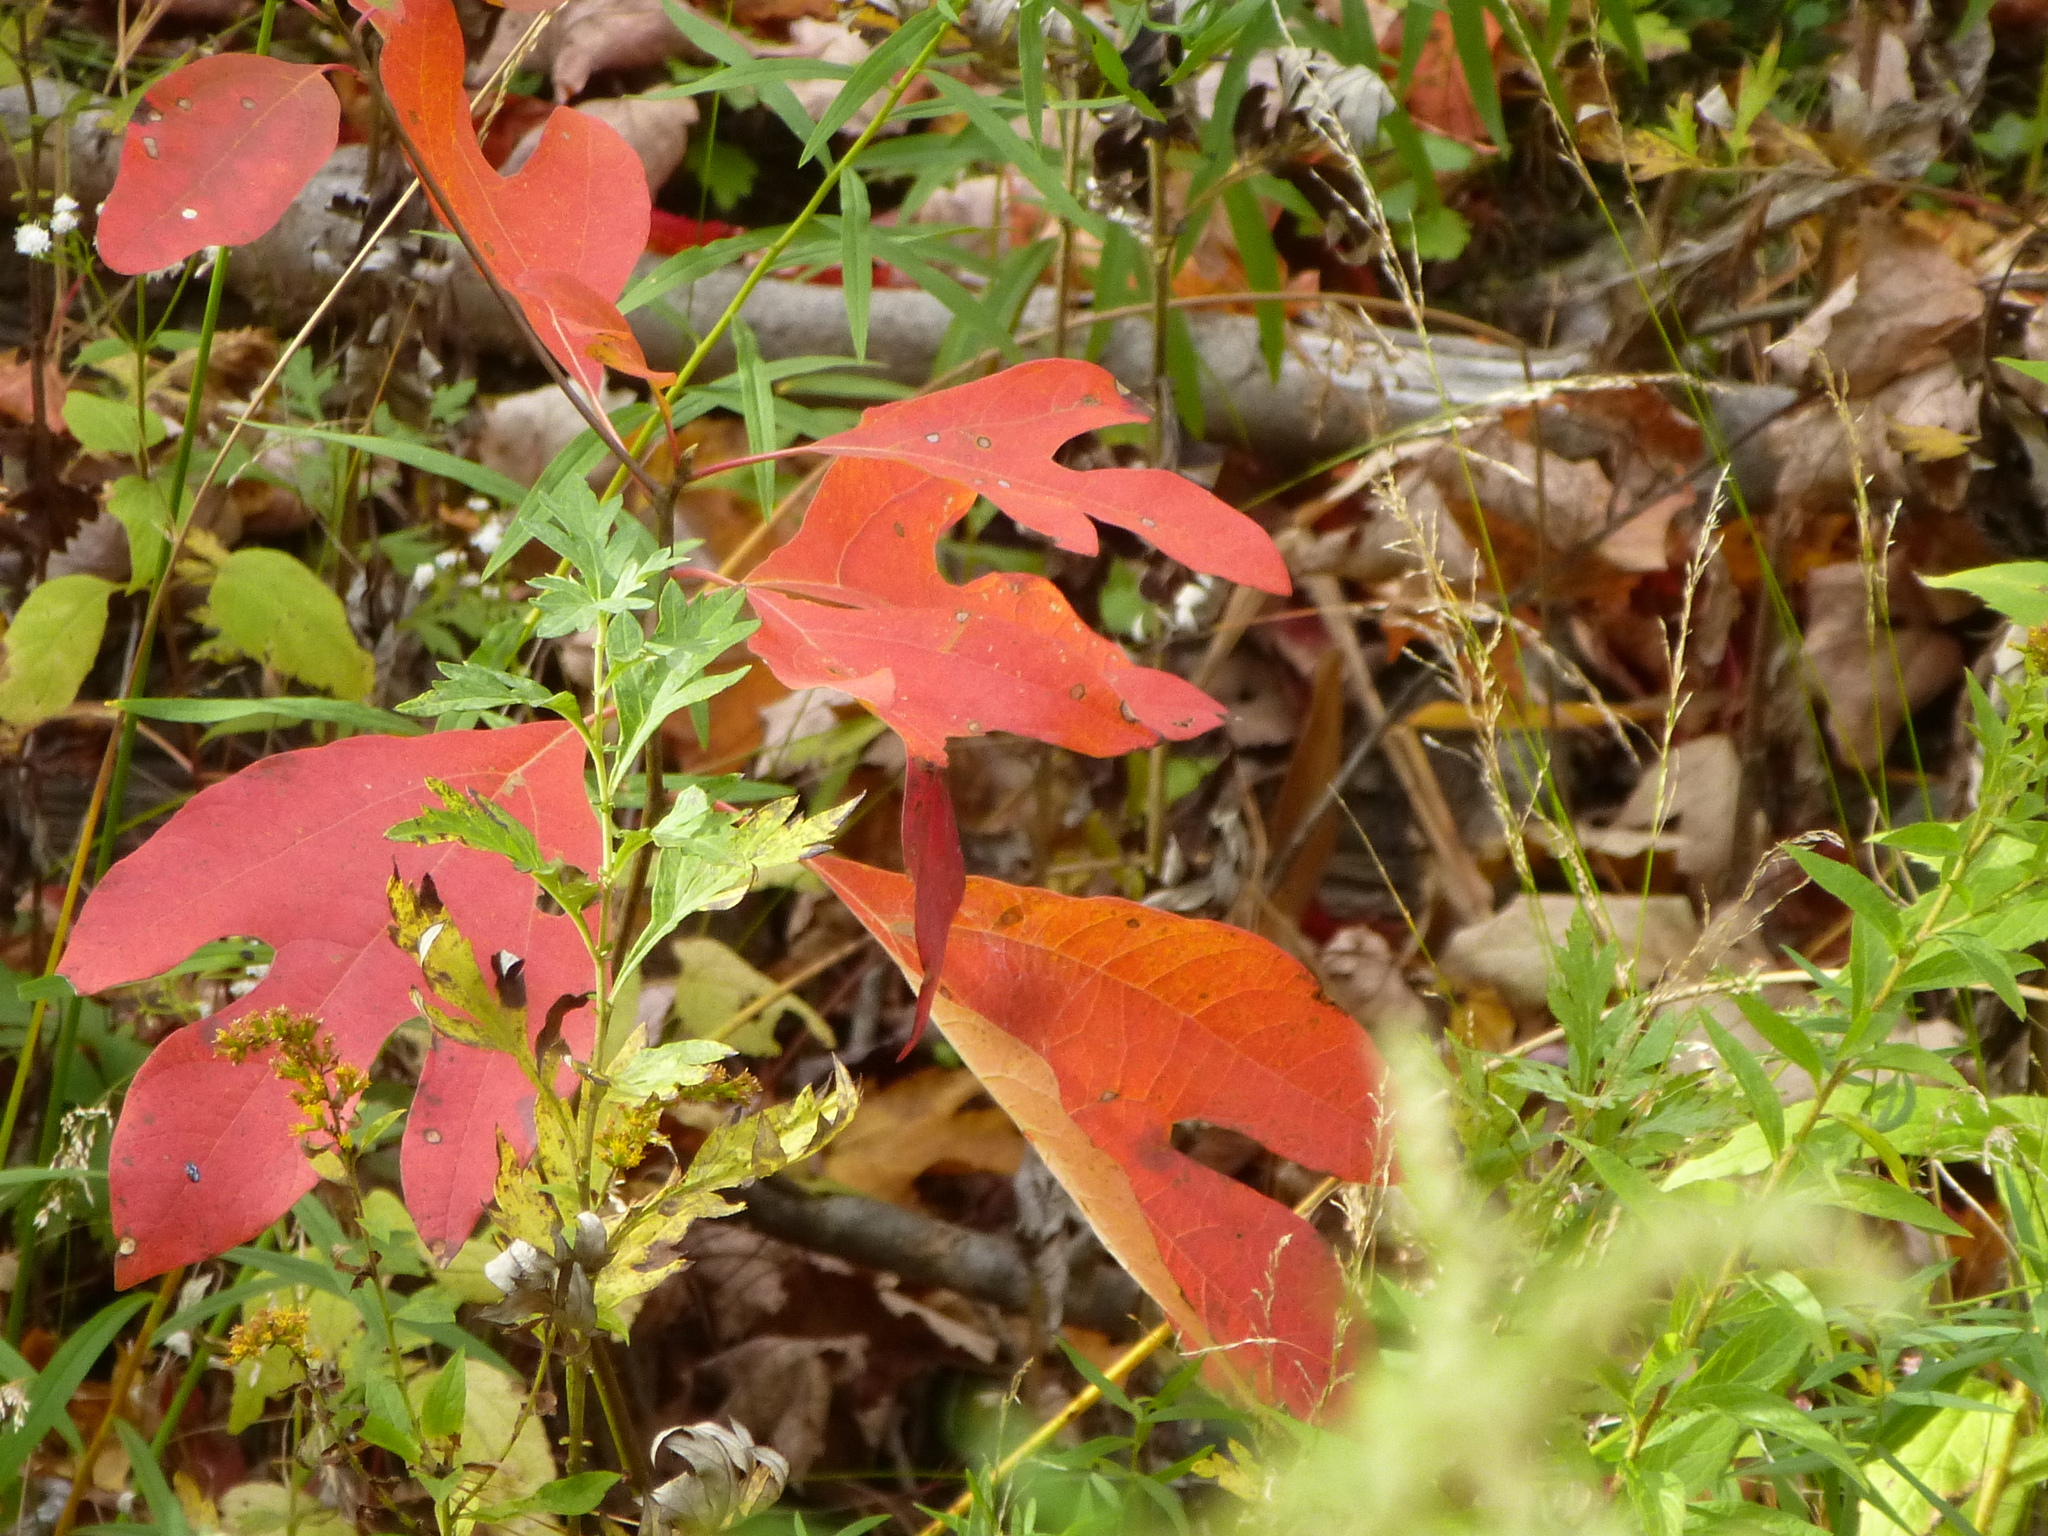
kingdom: Plantae
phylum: Tracheophyta
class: Magnoliopsida
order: Laurales
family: Lauraceae
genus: Sassafras
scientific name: Sassafras albidum
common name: Sassafras
